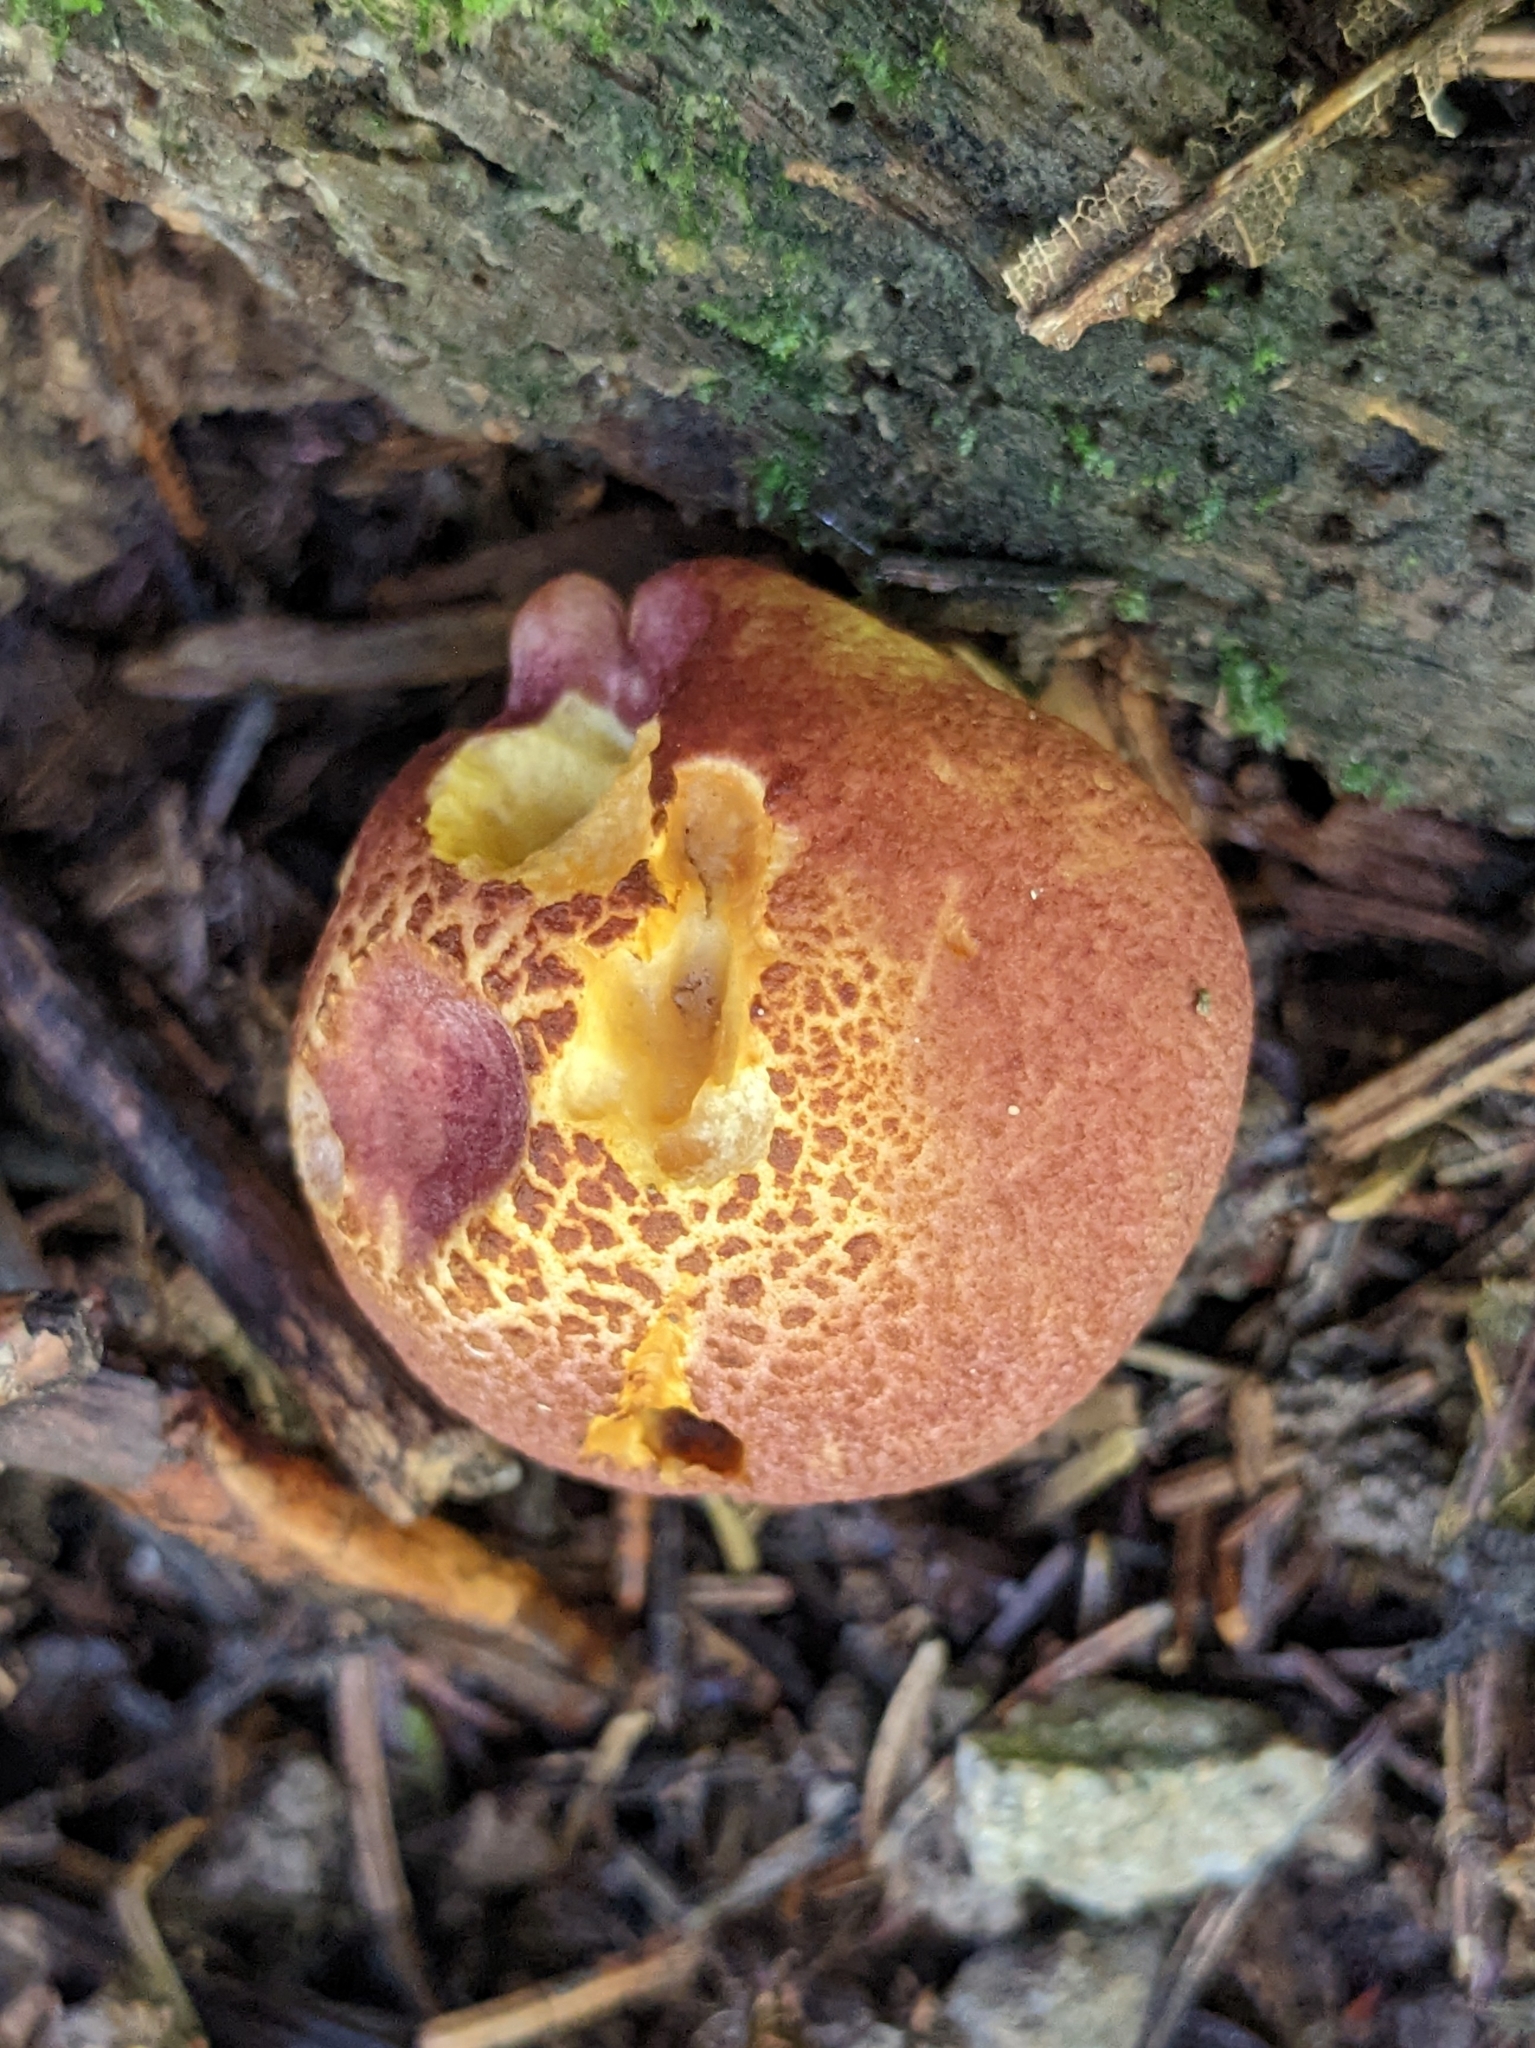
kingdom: Fungi
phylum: Basidiomycota
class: Agaricomycetes
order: Agaricales
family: Tricholomataceae
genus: Tricholomopsis
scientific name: Tricholomopsis rutilans
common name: Plums and custard
